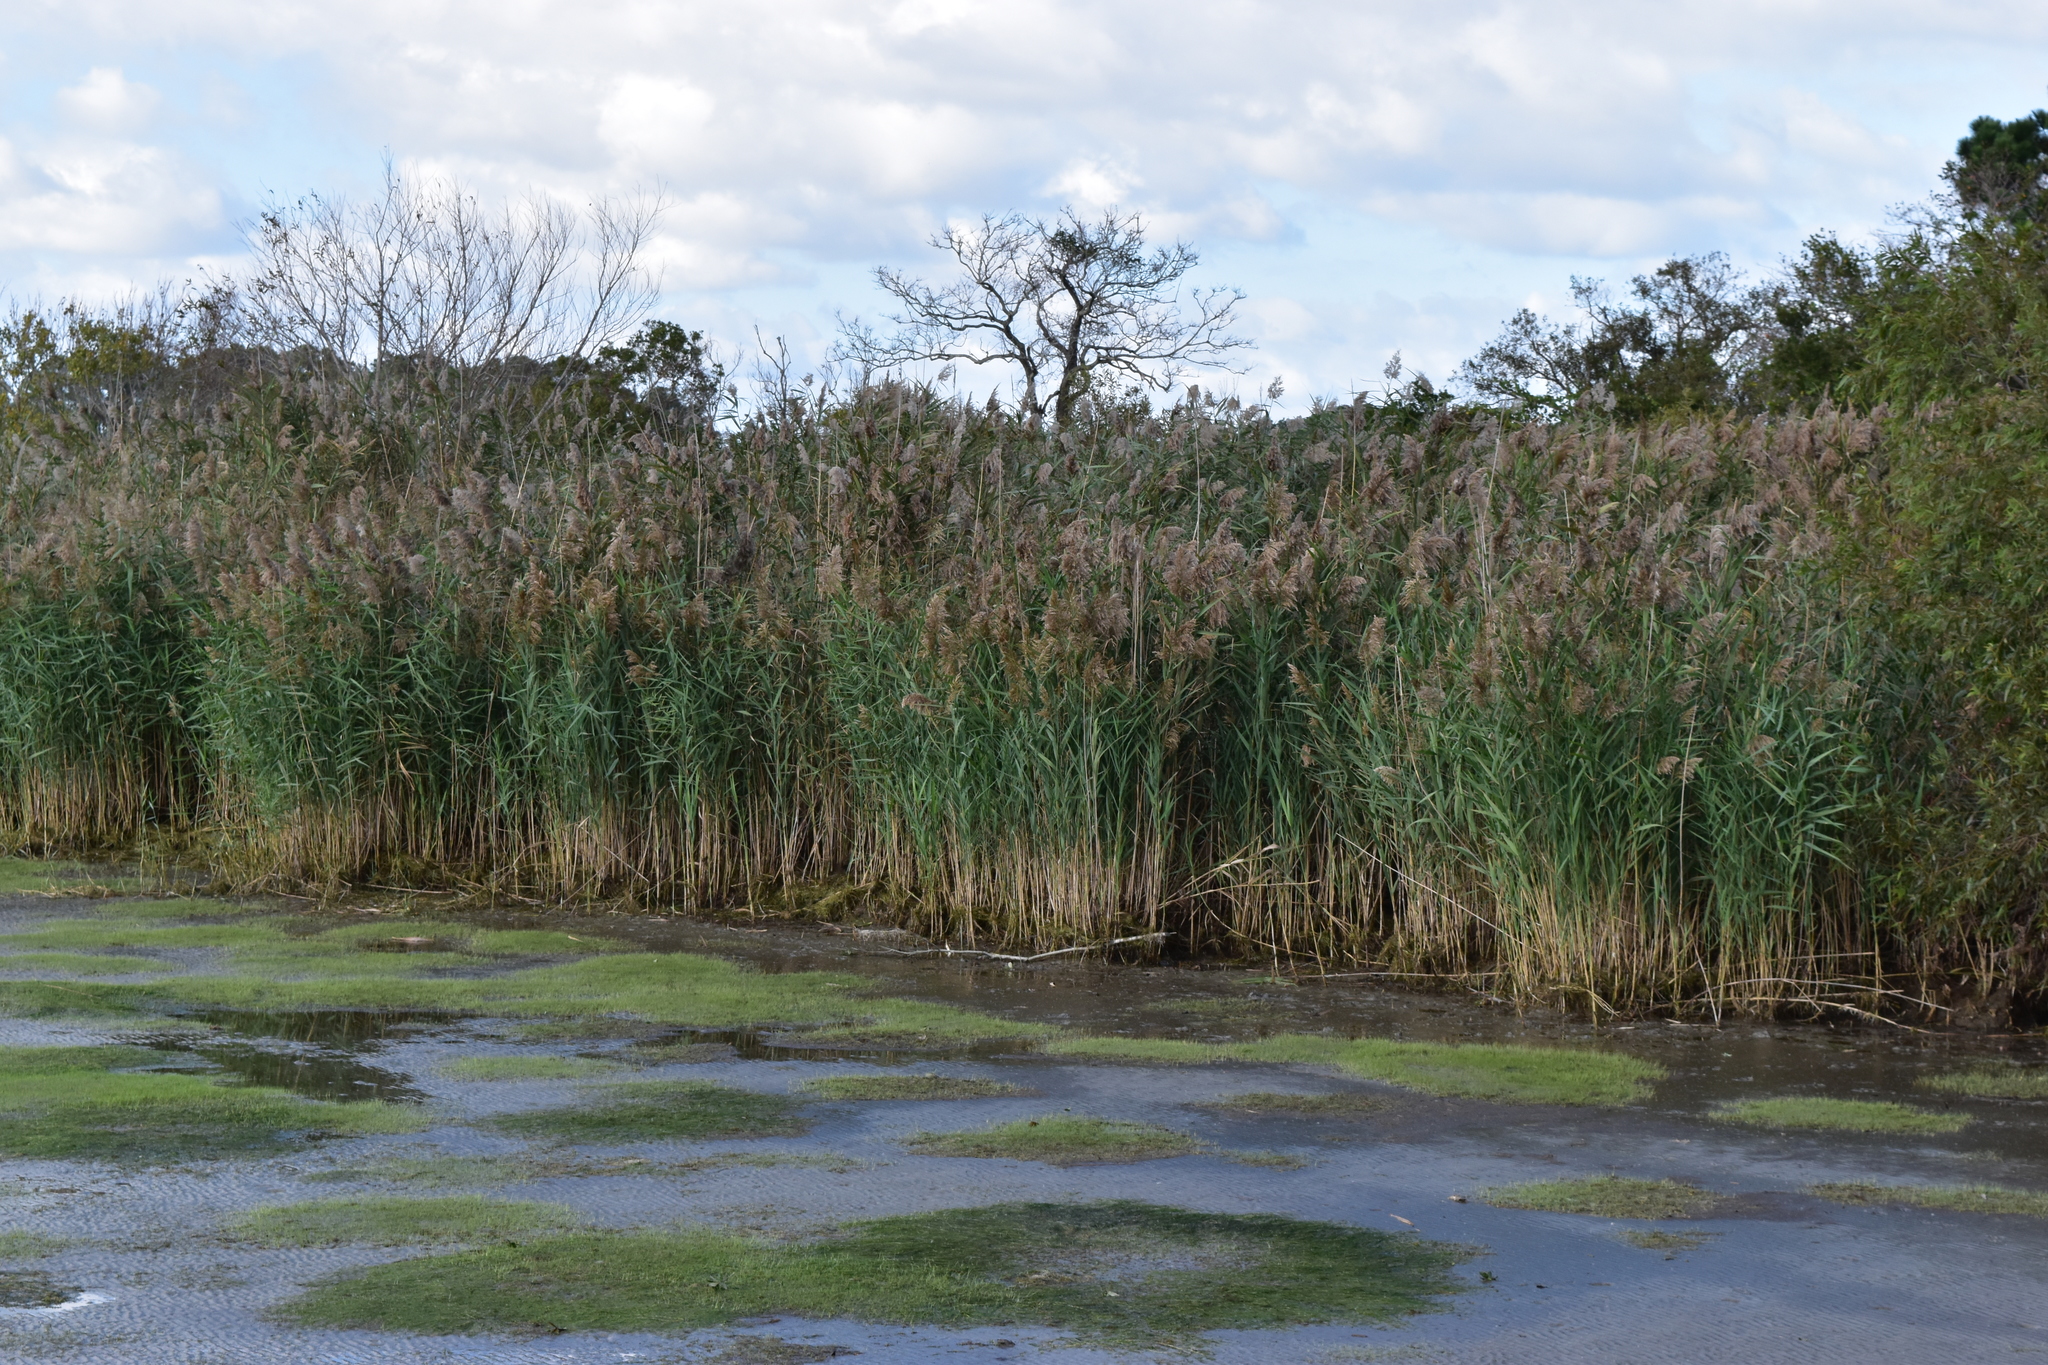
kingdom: Plantae
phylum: Tracheophyta
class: Liliopsida
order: Poales
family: Poaceae
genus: Phragmites
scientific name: Phragmites australis
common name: Common reed
